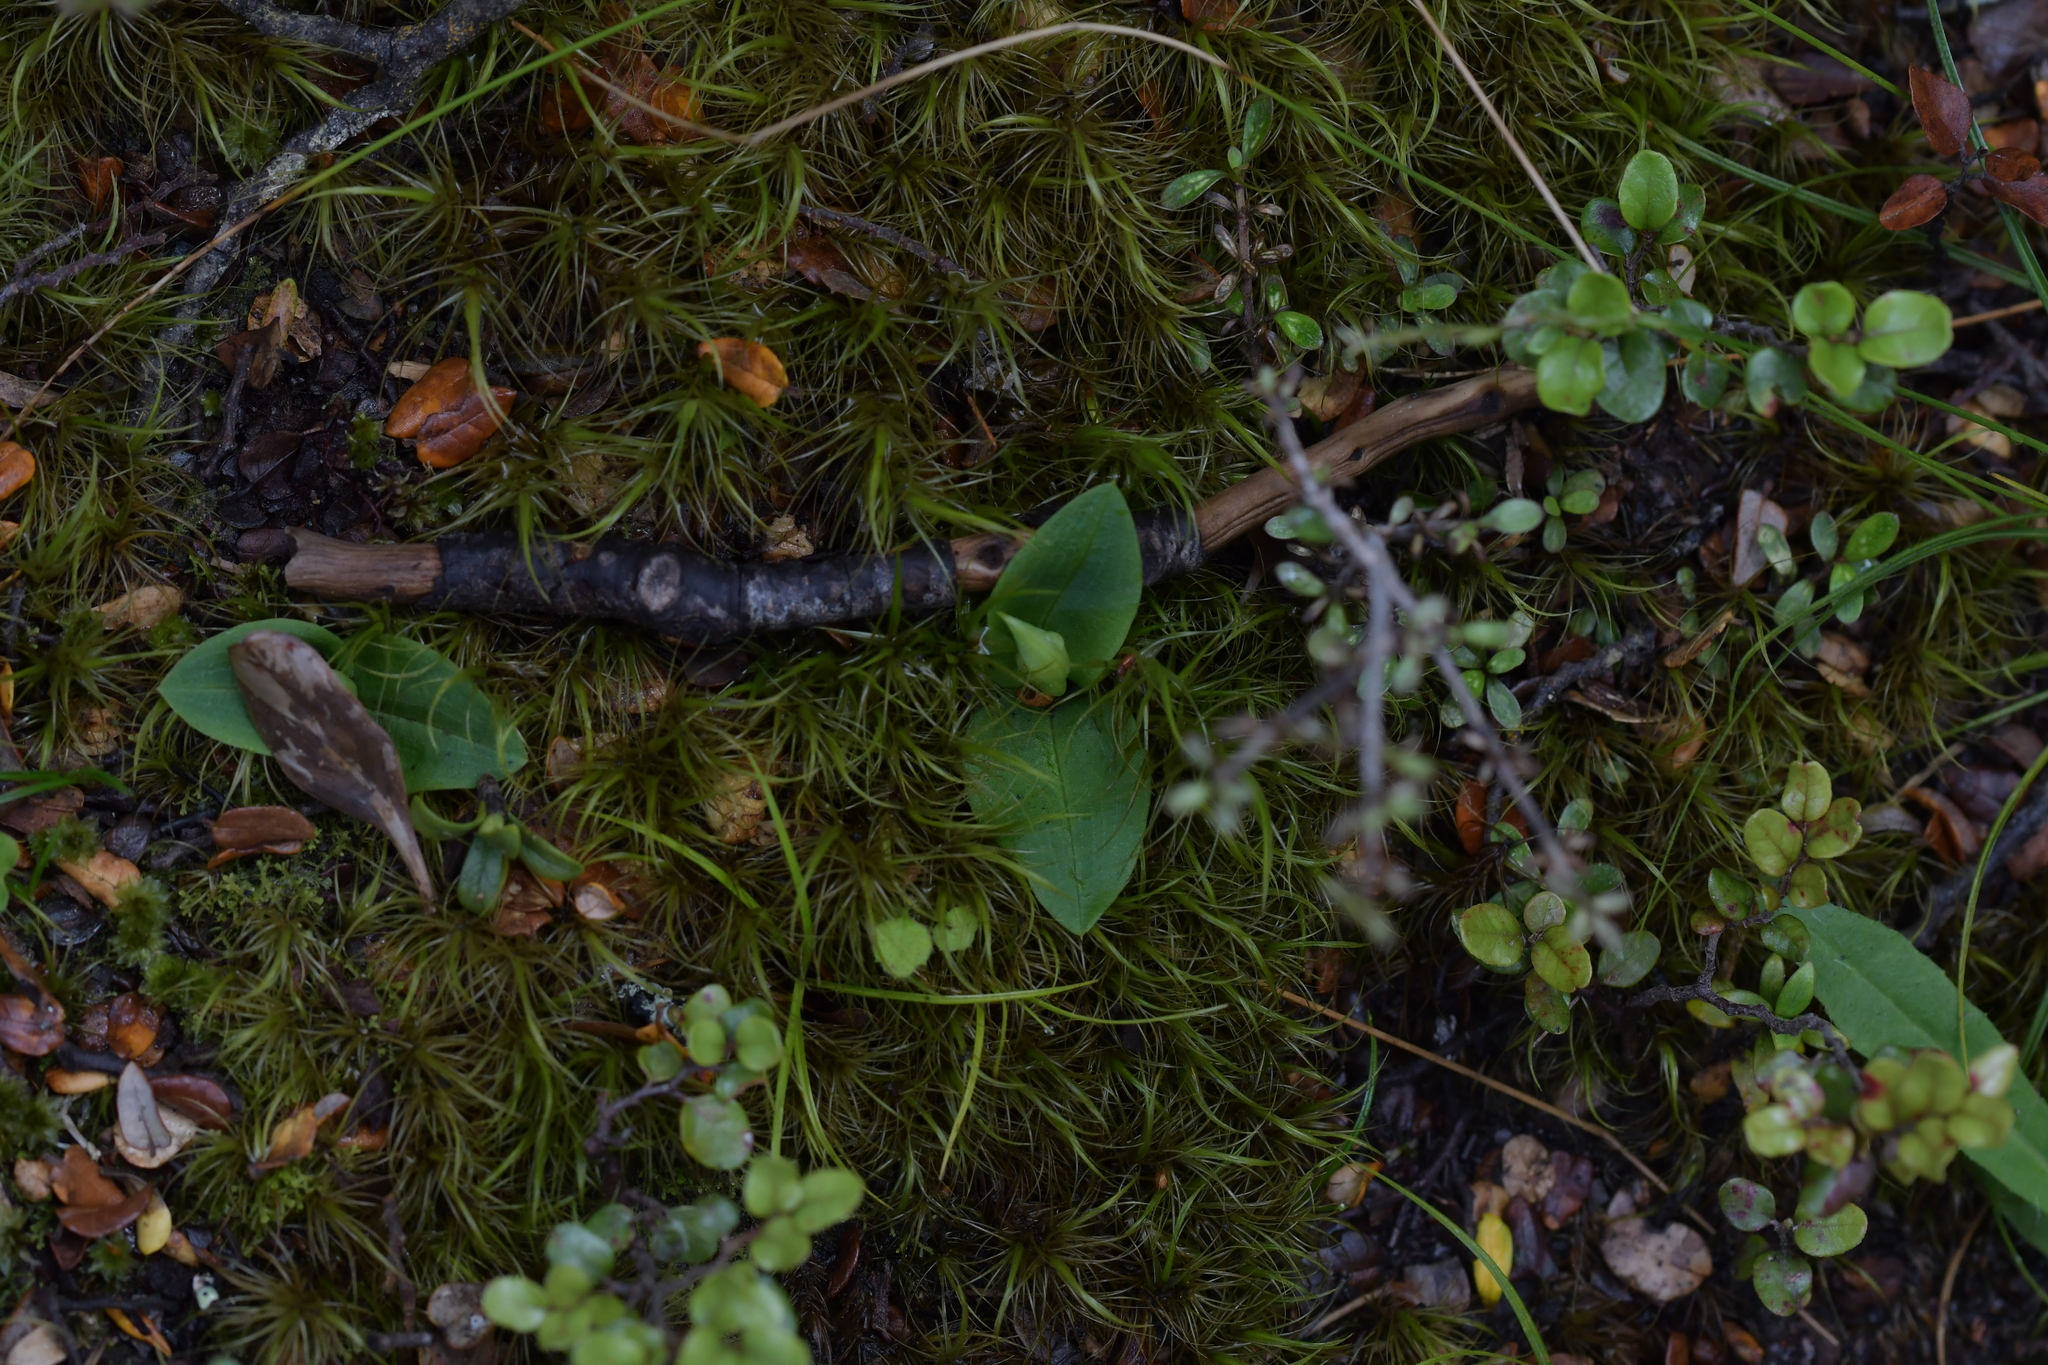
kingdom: Plantae
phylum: Tracheophyta
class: Liliopsida
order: Asparagales
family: Orchidaceae
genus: Chiloglottis
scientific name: Chiloglottis cornuta
